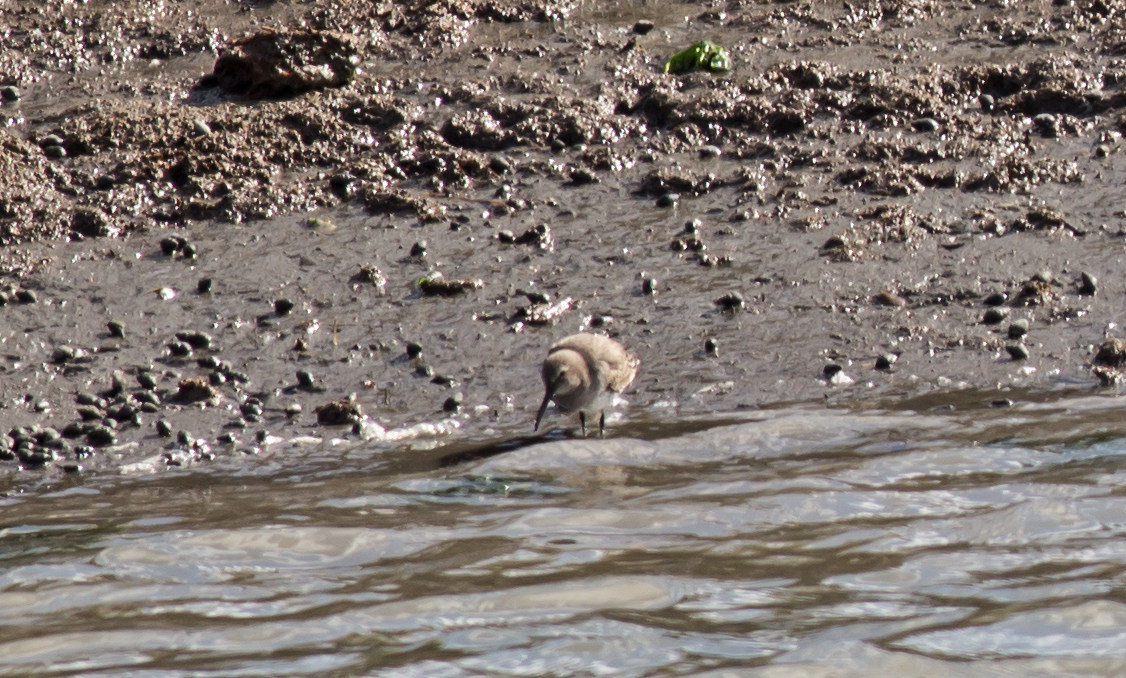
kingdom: Animalia
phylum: Chordata
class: Aves
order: Charadriiformes
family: Scolopacidae
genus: Calidris
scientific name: Calidris alpina
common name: Dunlin
